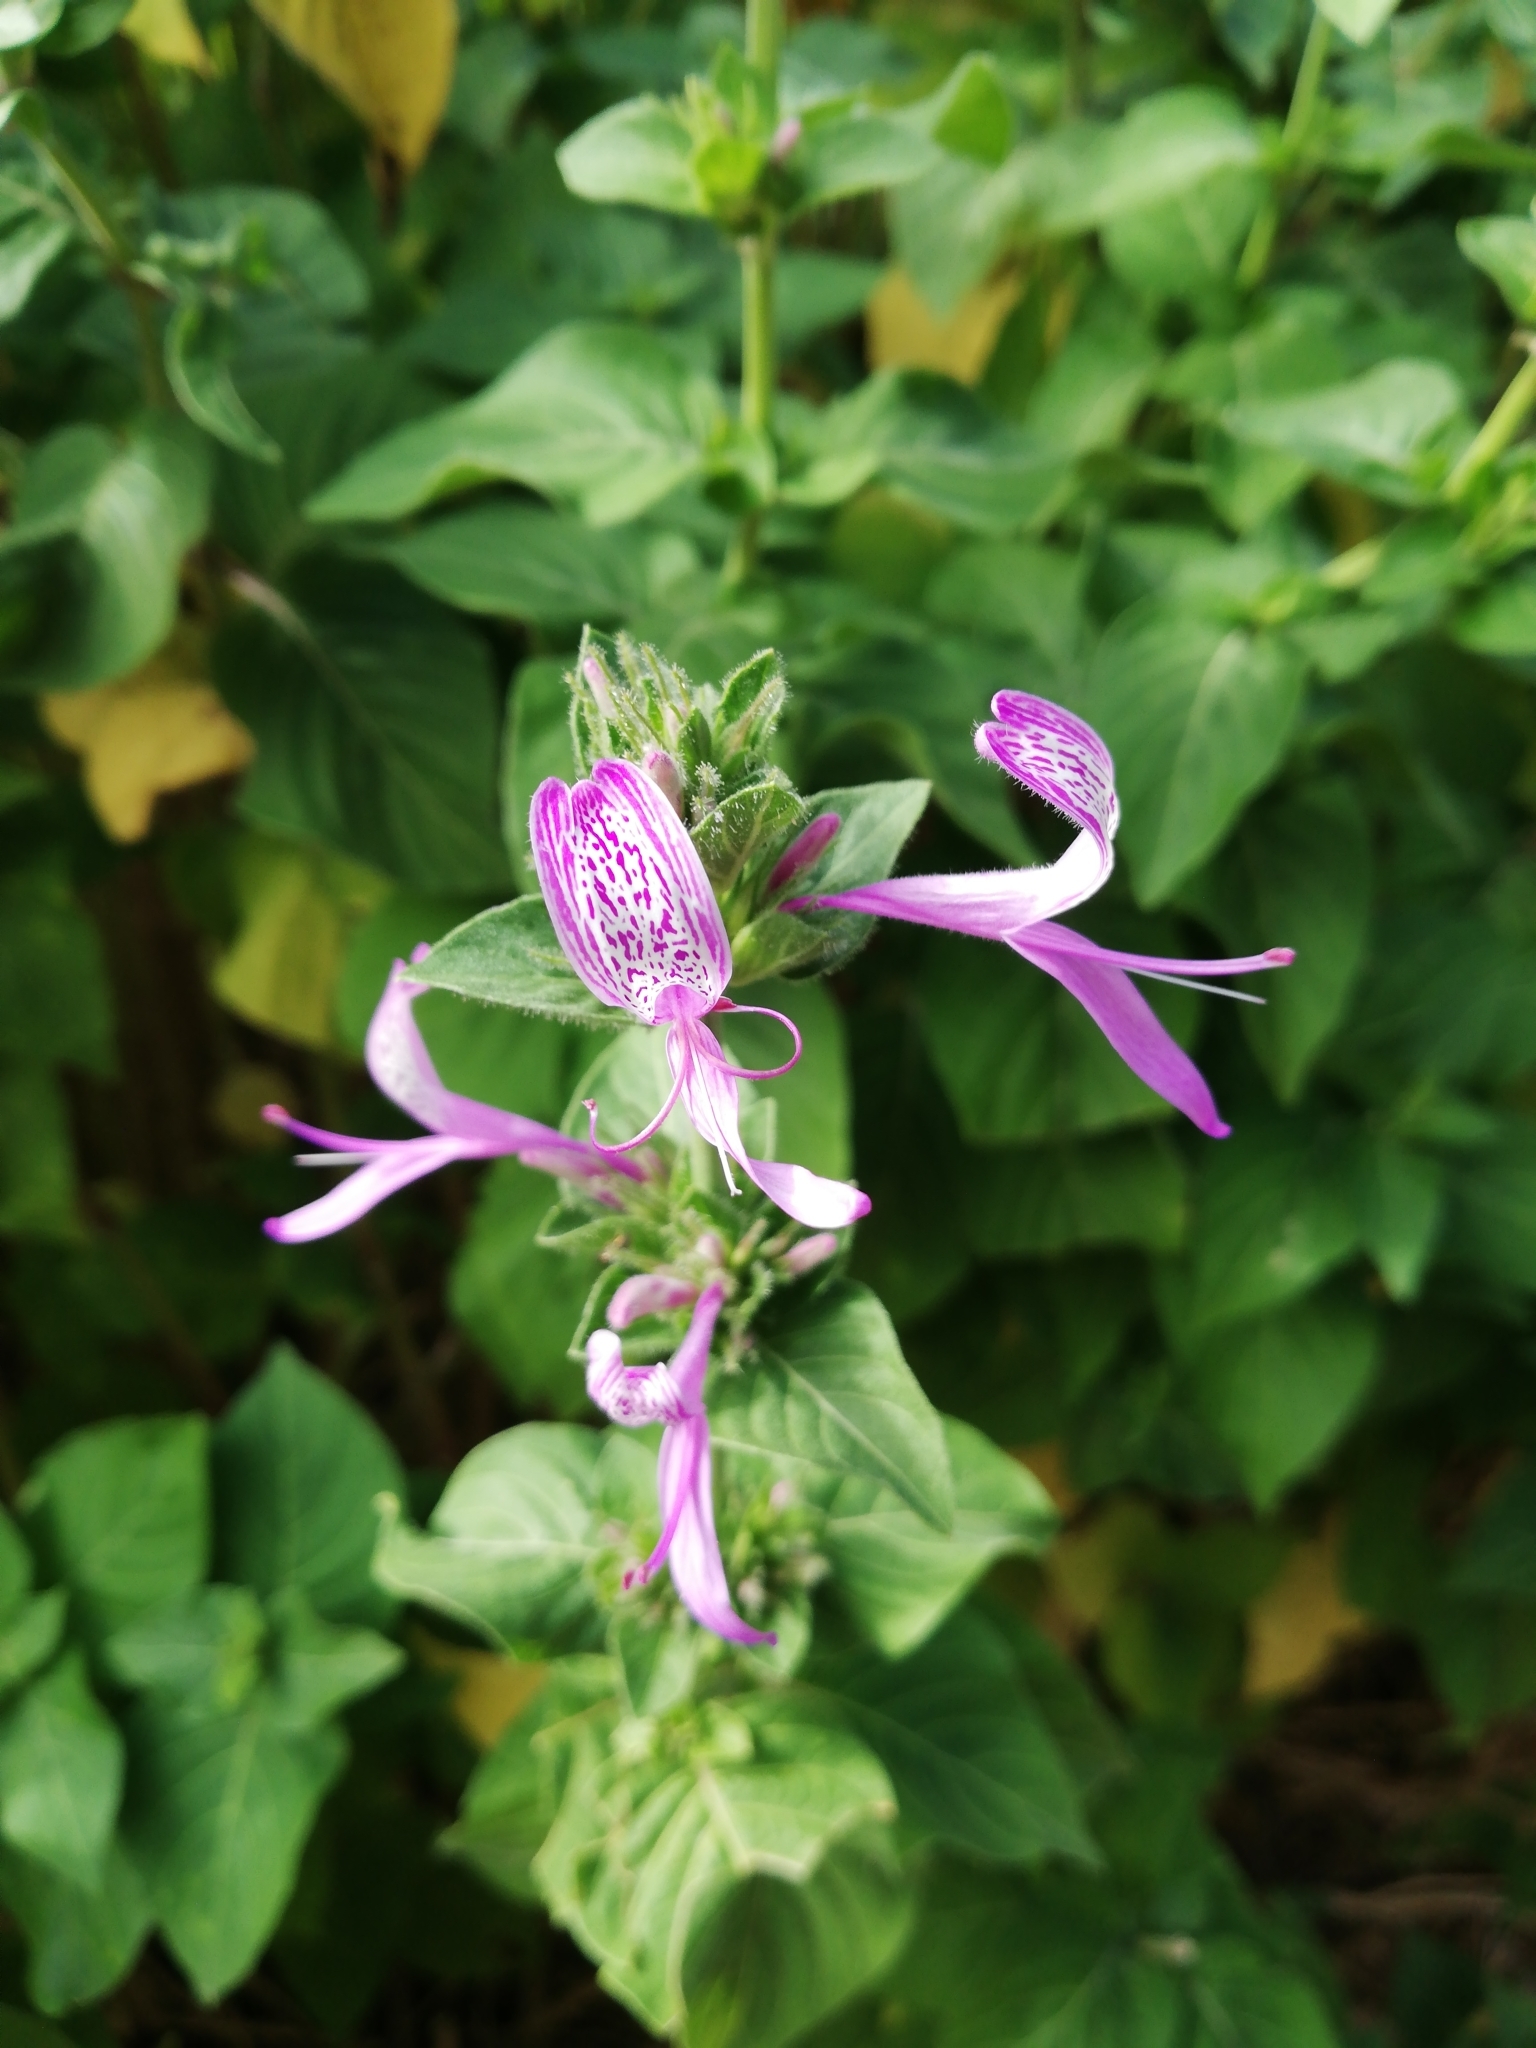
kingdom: Plantae
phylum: Tracheophyta
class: Magnoliopsida
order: Lamiales
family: Acanthaceae
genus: Hypoestes
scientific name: Hypoestes aristata
